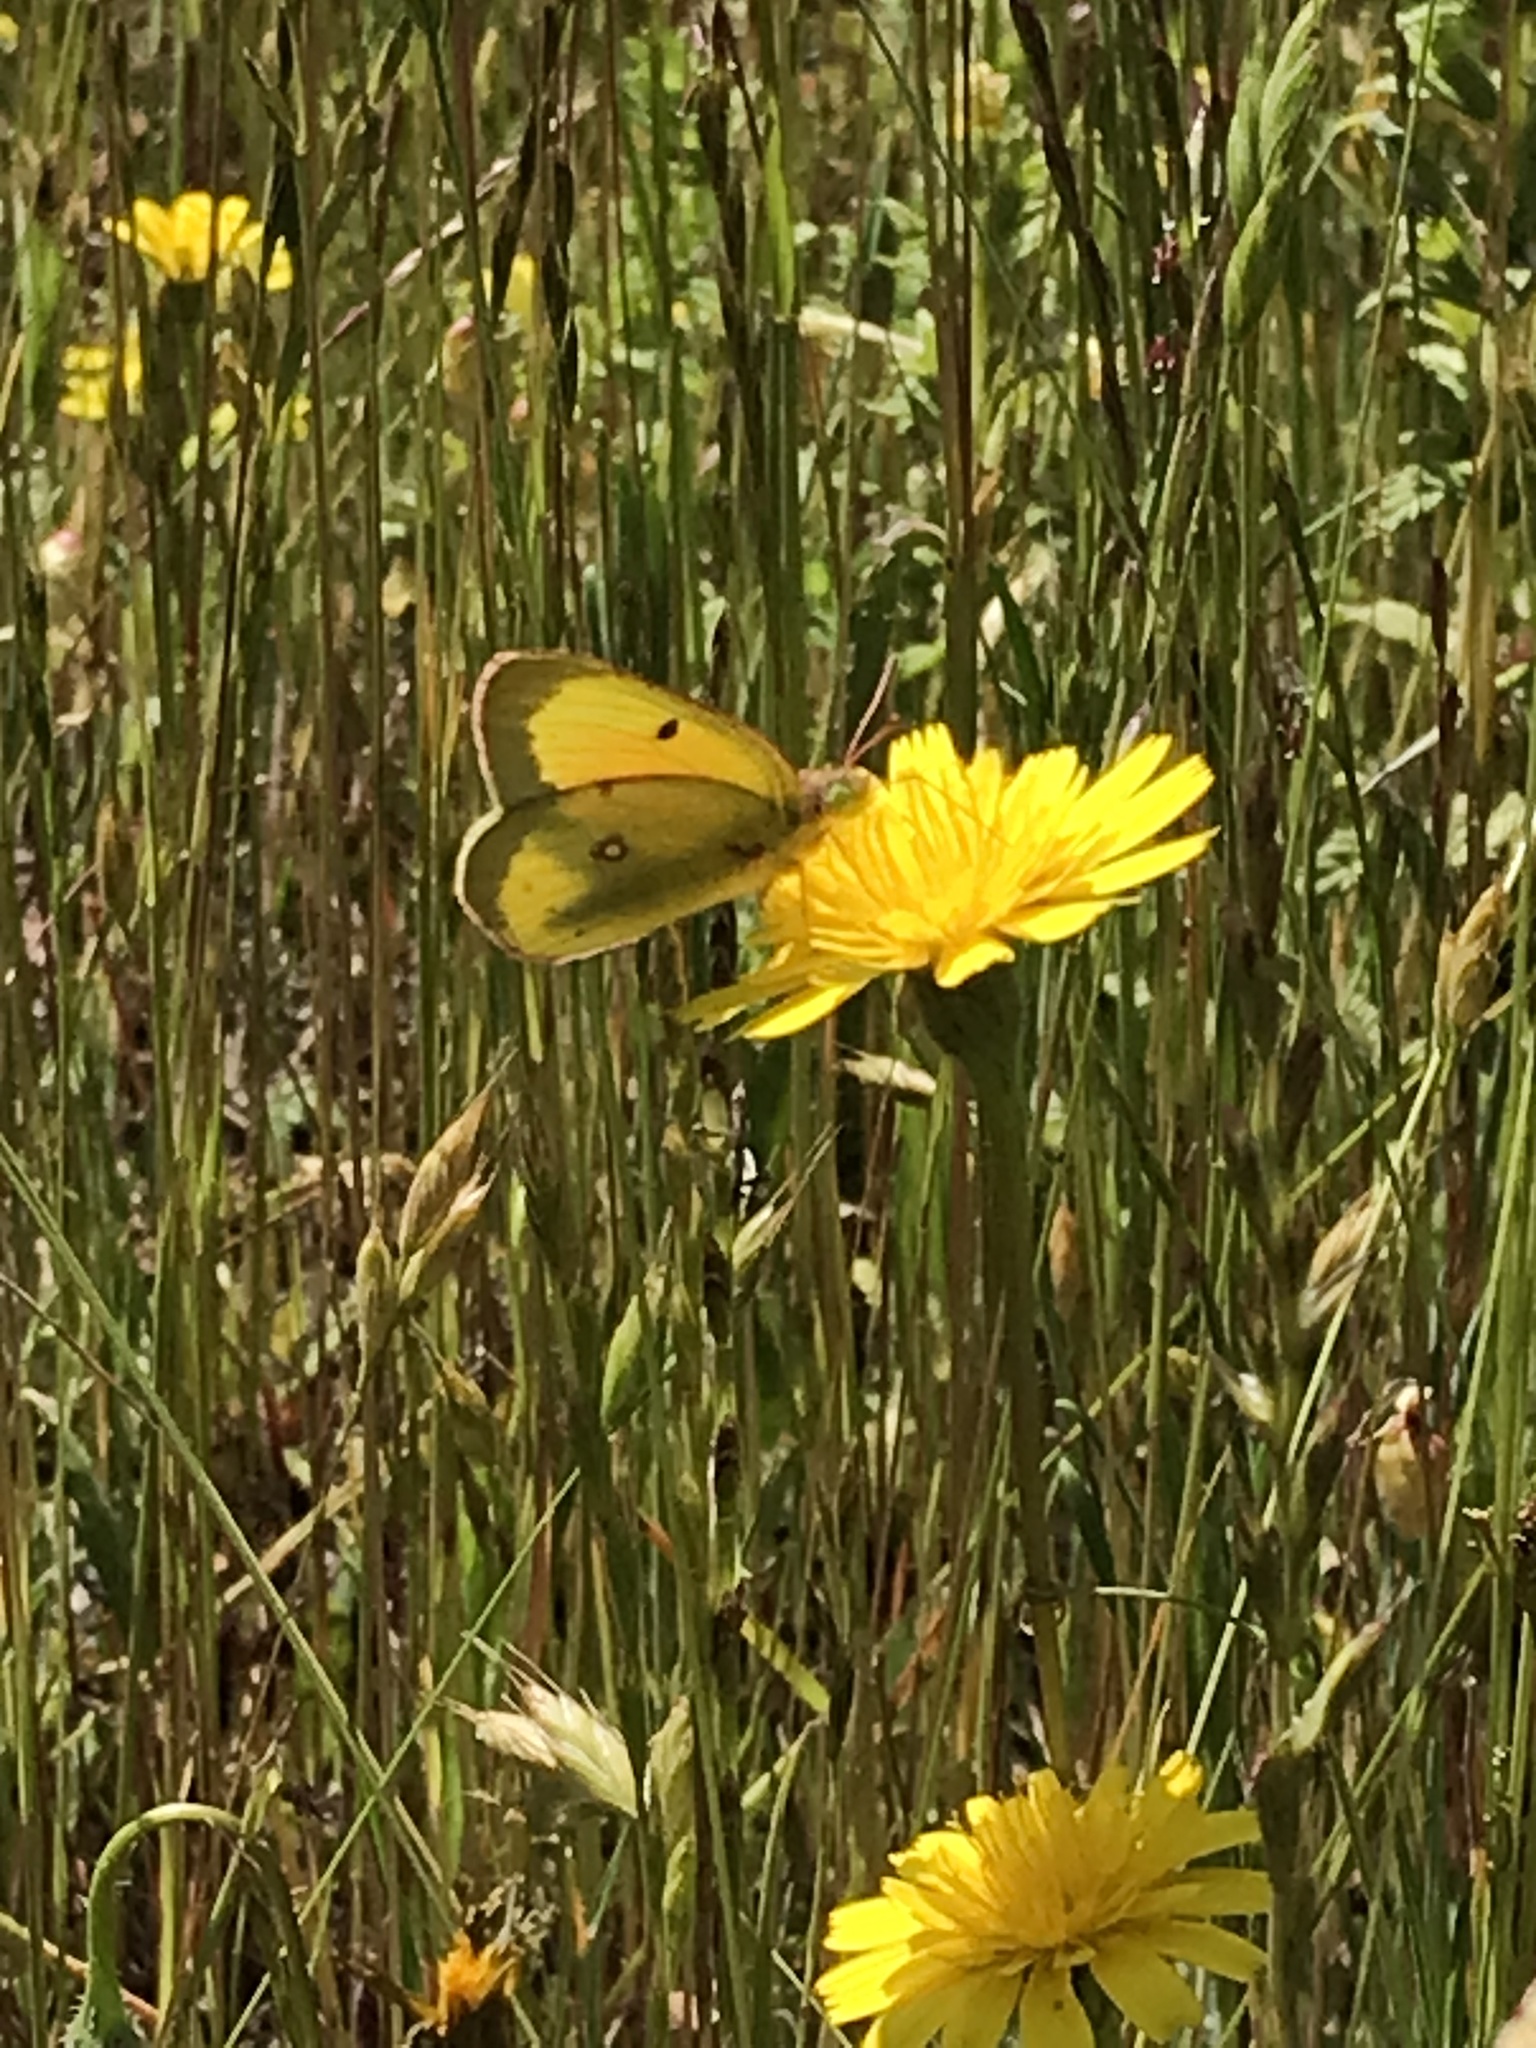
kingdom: Animalia
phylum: Arthropoda
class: Insecta
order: Lepidoptera
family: Pieridae
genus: Colias
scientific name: Colias eurytheme
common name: Alfalfa butterfly
